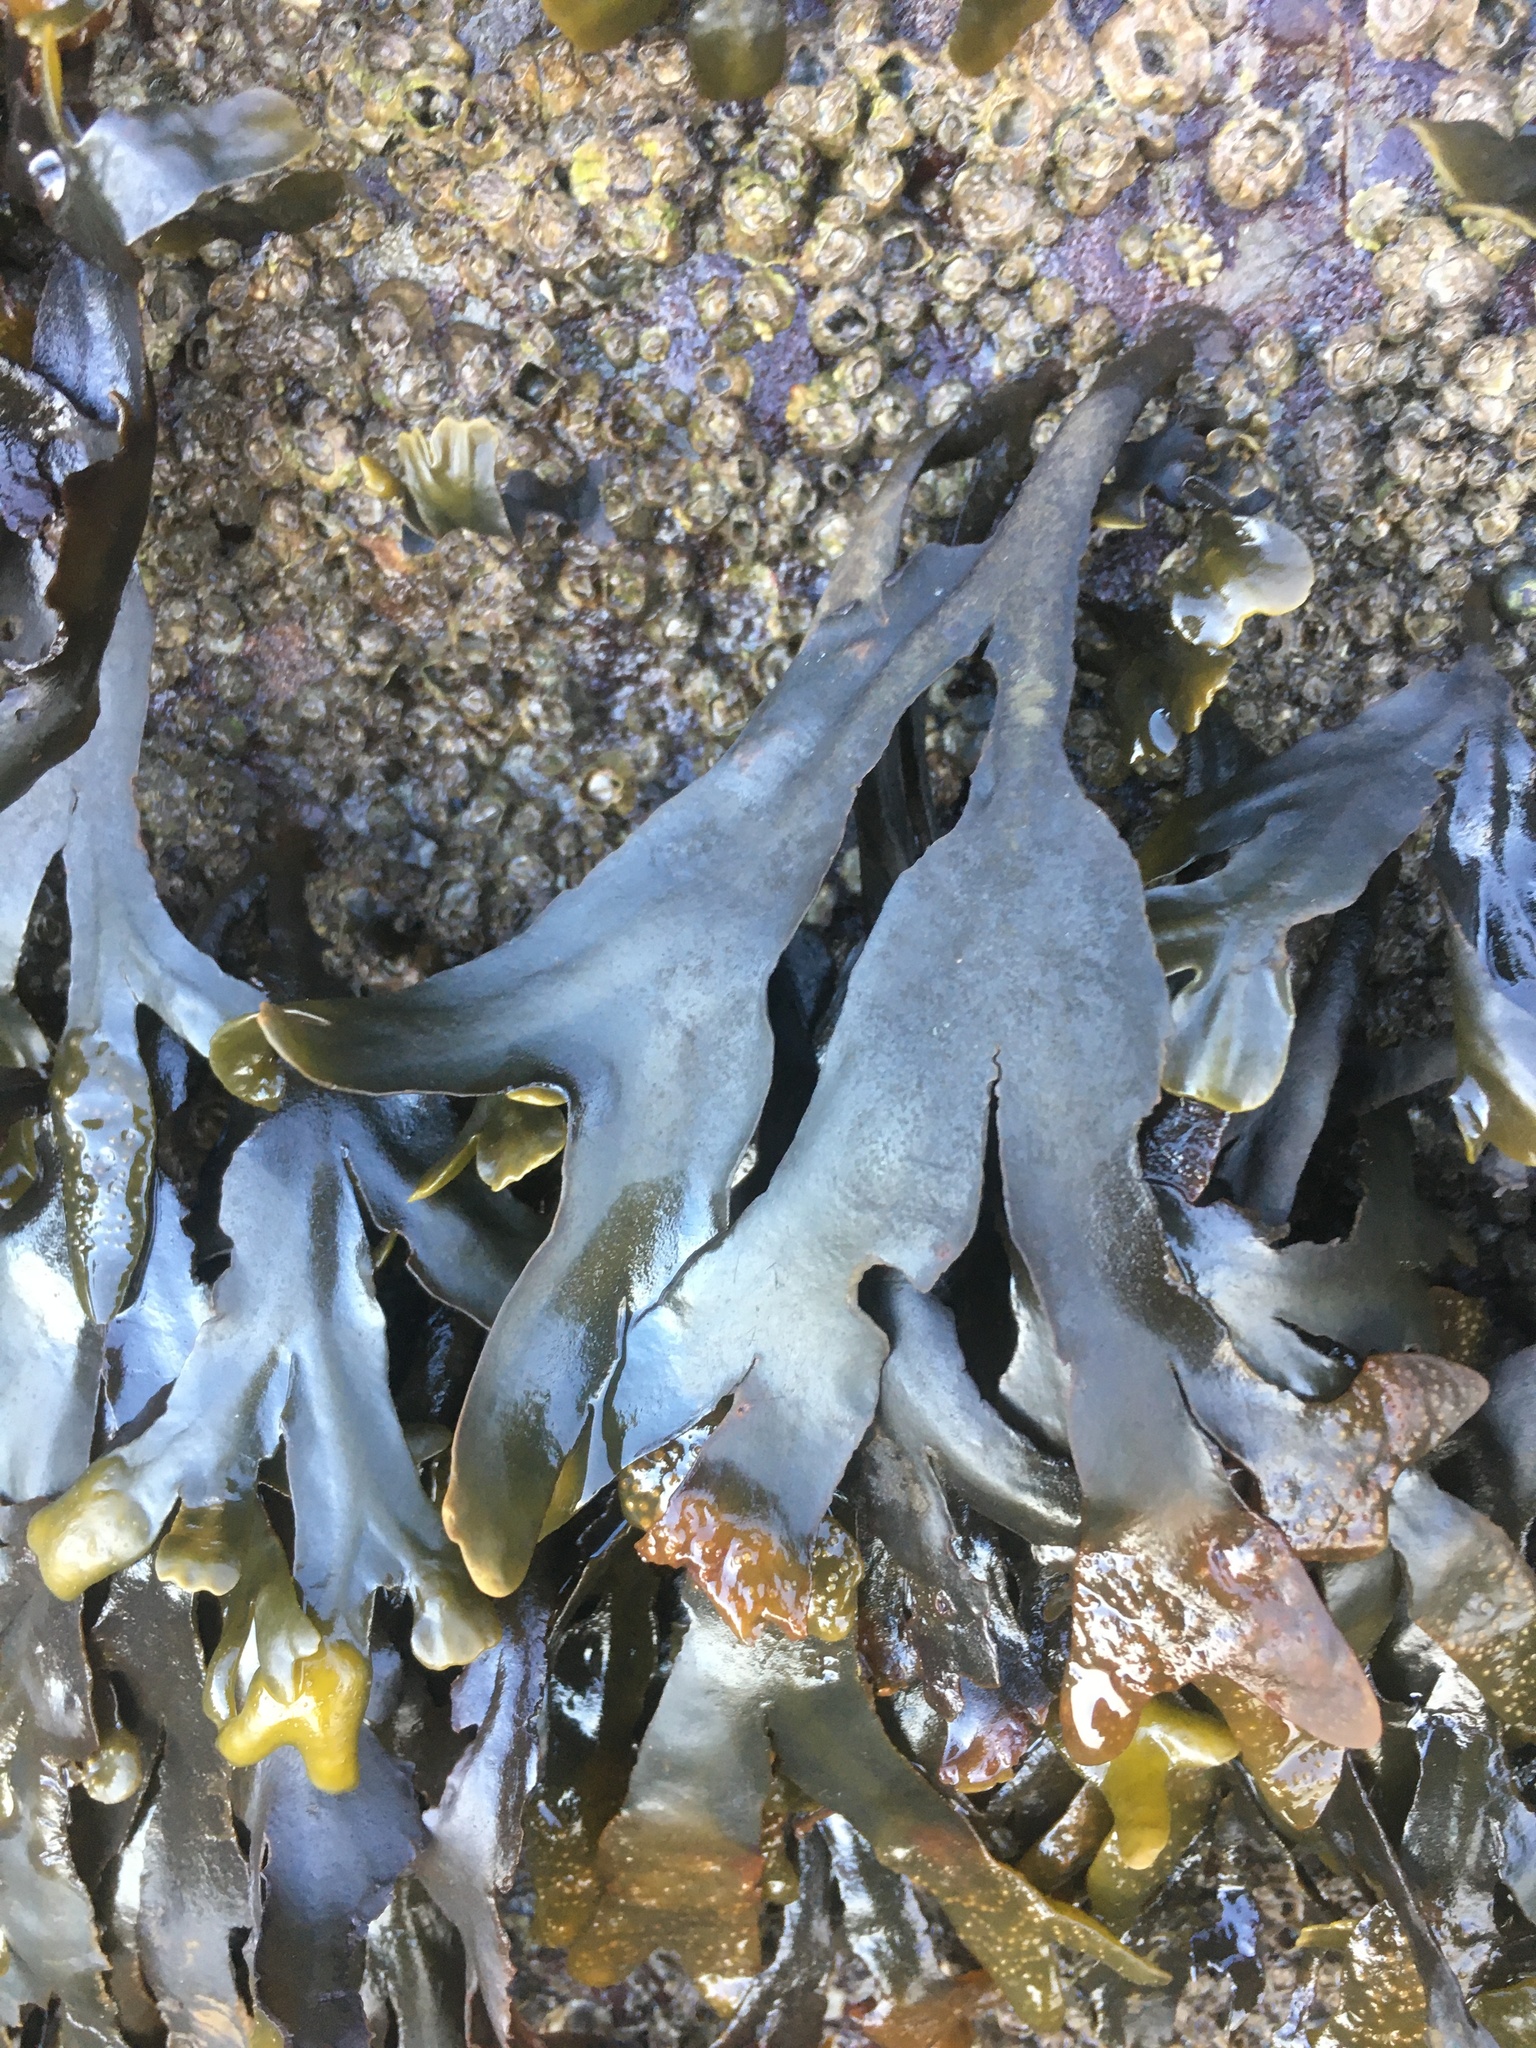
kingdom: Chromista
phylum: Ochrophyta
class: Phaeophyceae
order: Fucales
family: Fucaceae
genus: Fucus
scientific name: Fucus distichus
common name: Rockweed
